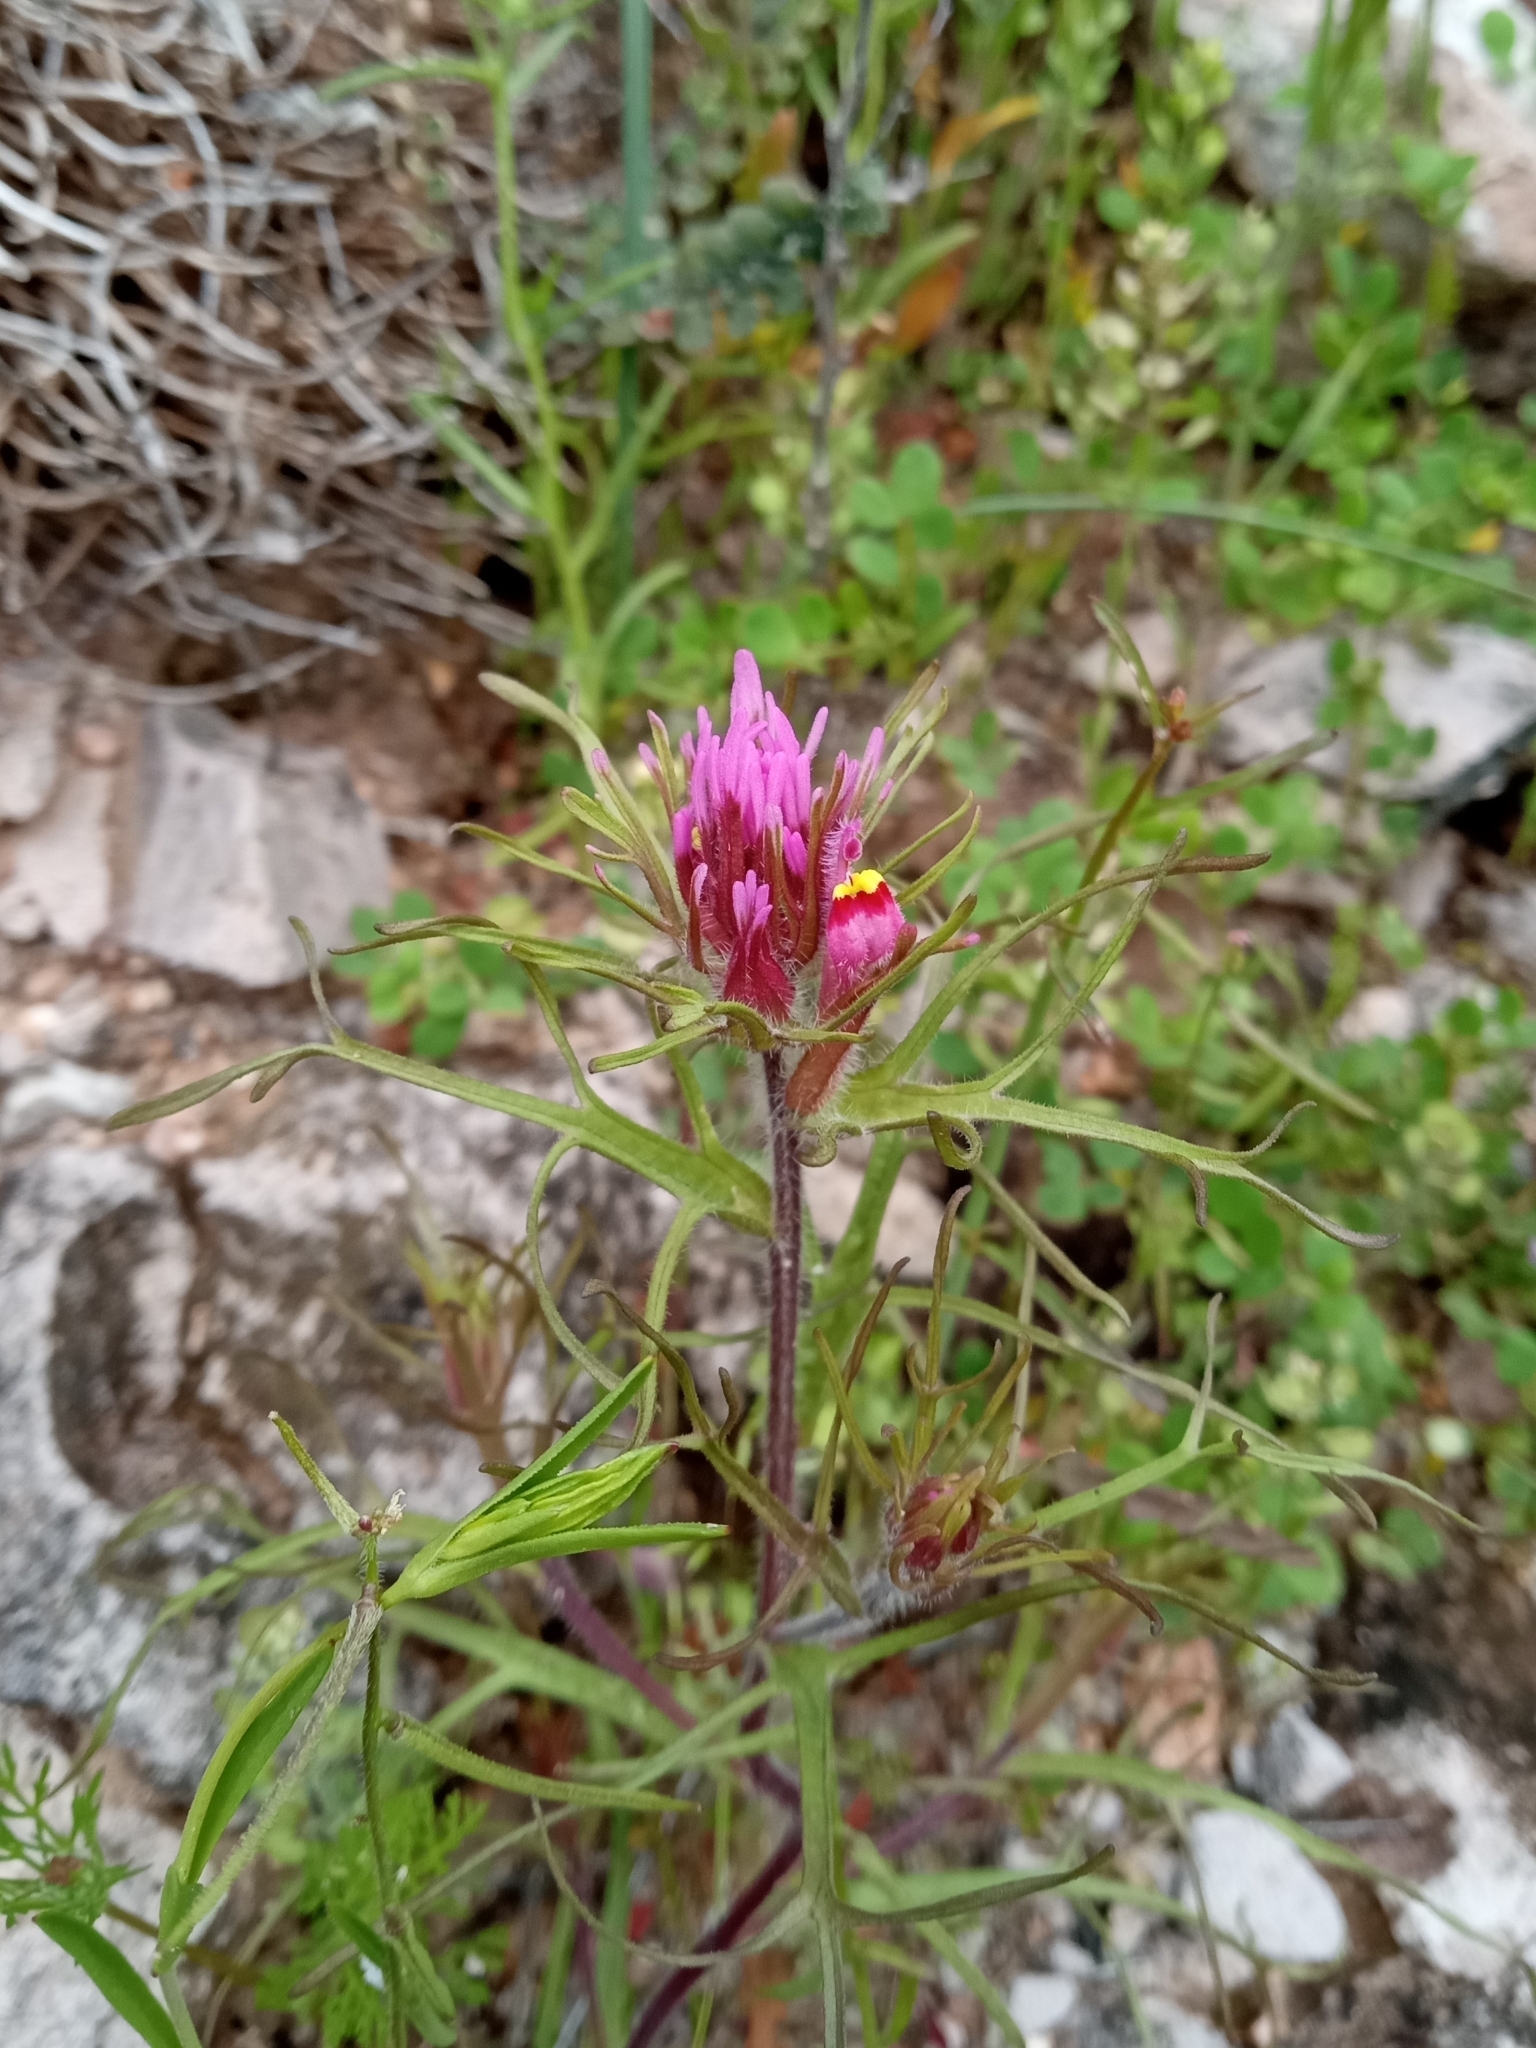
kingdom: Plantae
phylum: Tracheophyta
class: Magnoliopsida
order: Lamiales
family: Orobanchaceae
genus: Castilleja
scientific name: Castilleja exserta
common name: Purple owl-clover
